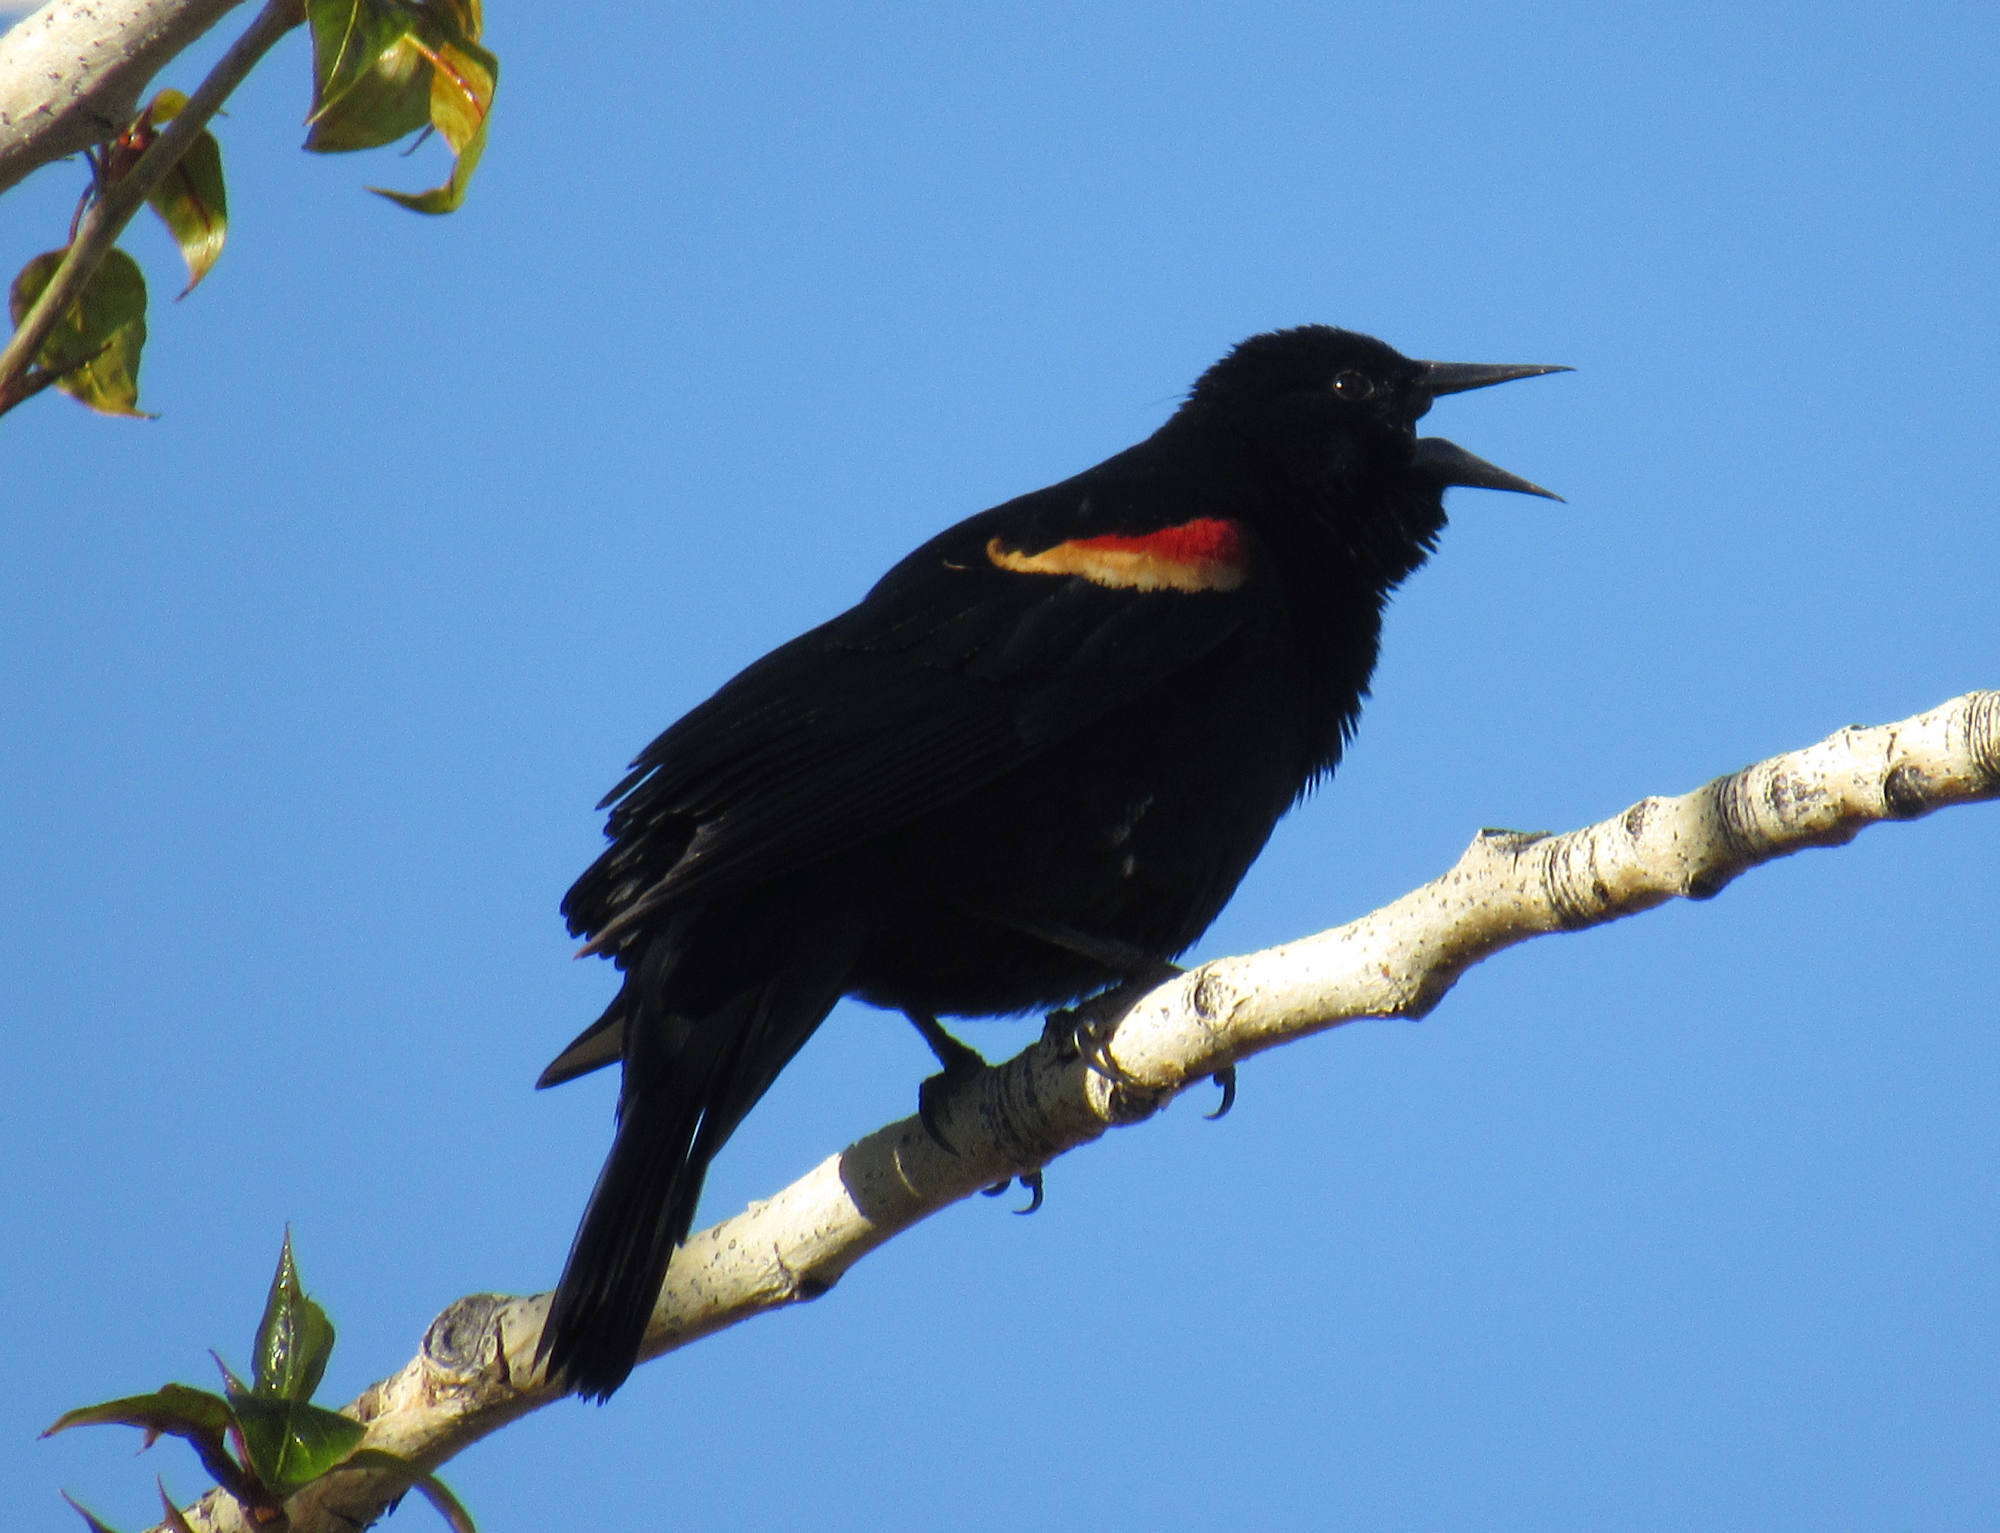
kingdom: Animalia
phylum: Chordata
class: Aves
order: Passeriformes
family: Icteridae
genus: Agelaius
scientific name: Agelaius phoeniceus
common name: Red-winged blackbird
